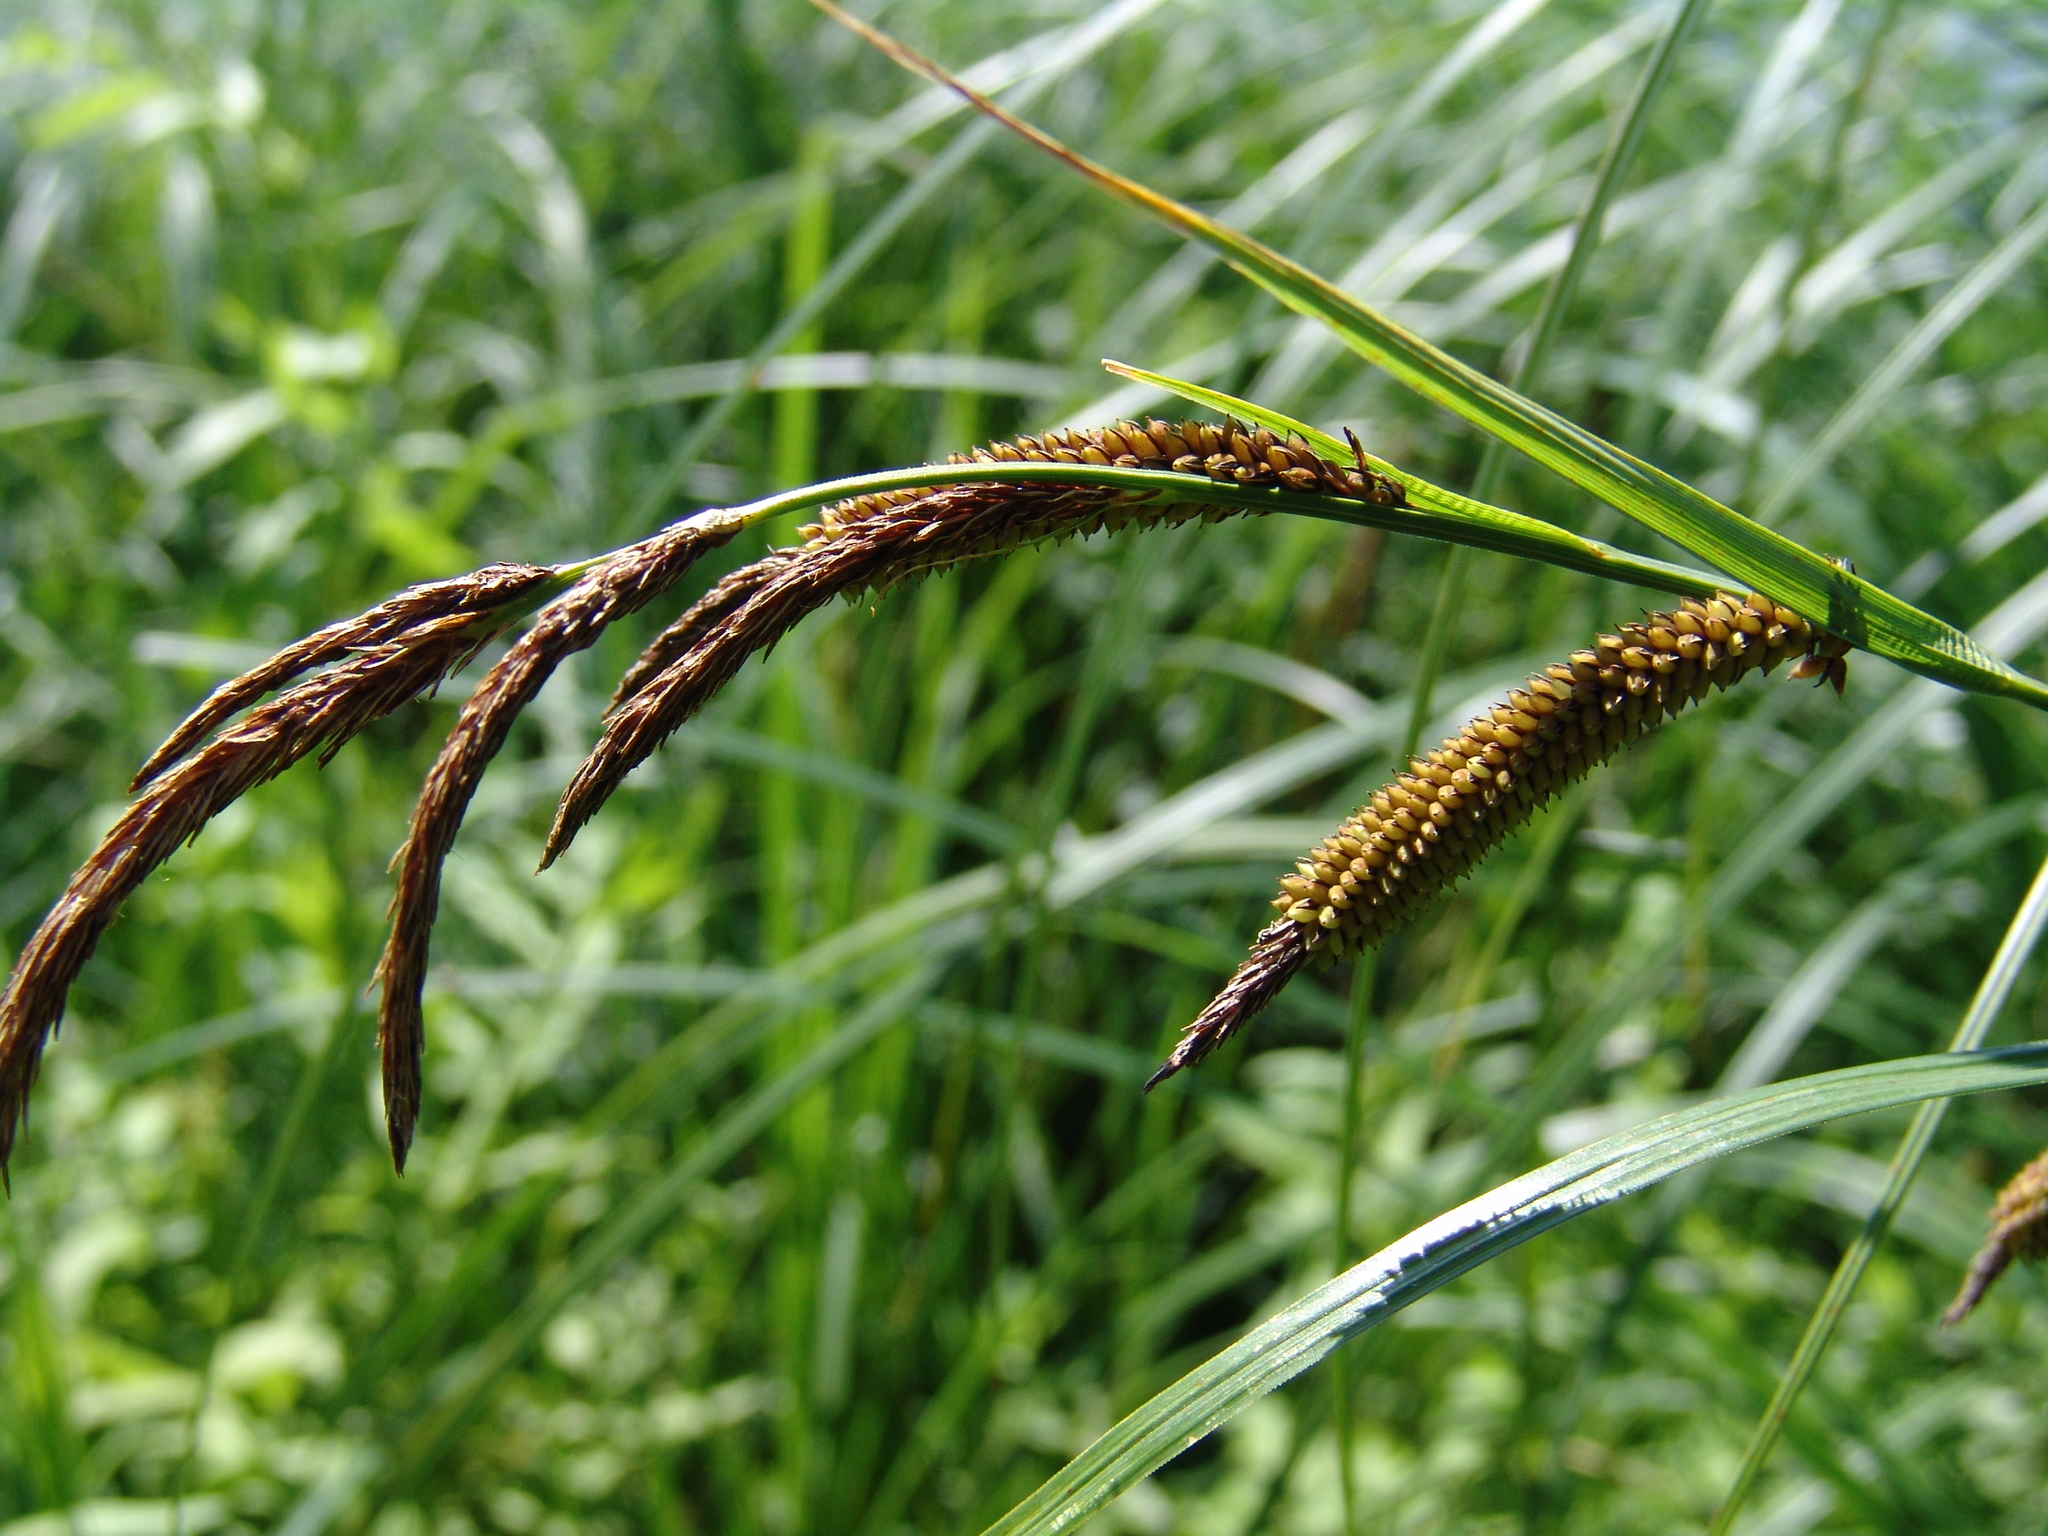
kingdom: Plantae
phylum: Tracheophyta
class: Liliopsida
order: Poales
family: Cyperaceae
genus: Carex
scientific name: Carex acuta
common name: Slender tufted-sedge
